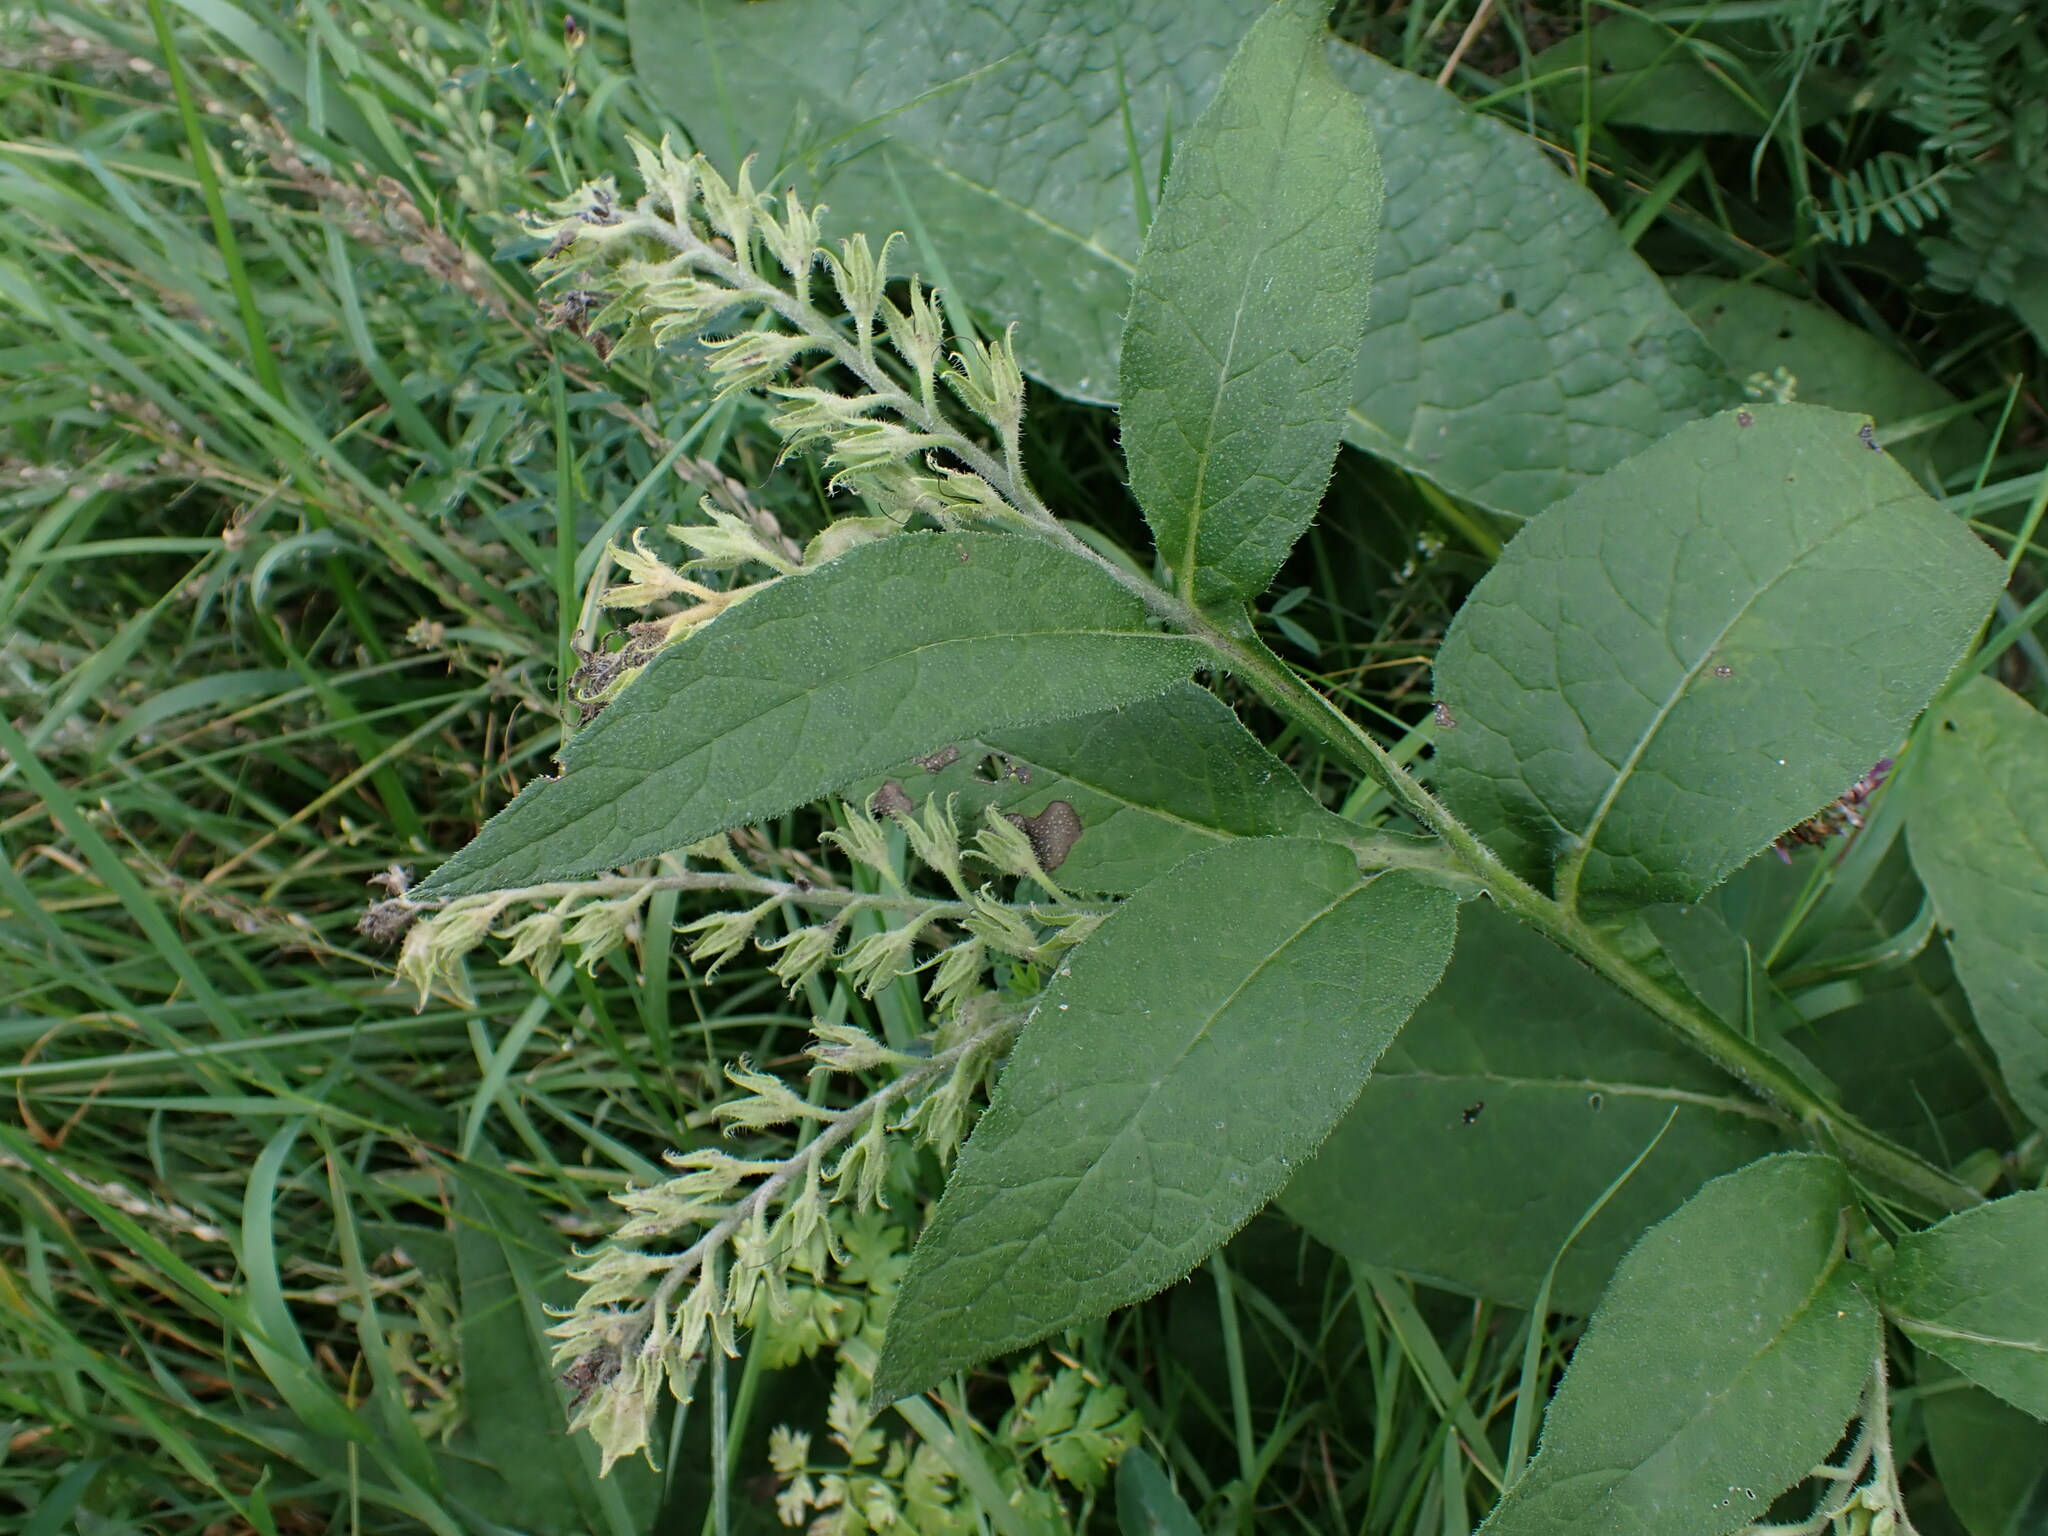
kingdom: Plantae
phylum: Tracheophyta
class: Magnoliopsida
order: Boraginales
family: Boraginaceae
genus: Symphytum
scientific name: Symphytum
